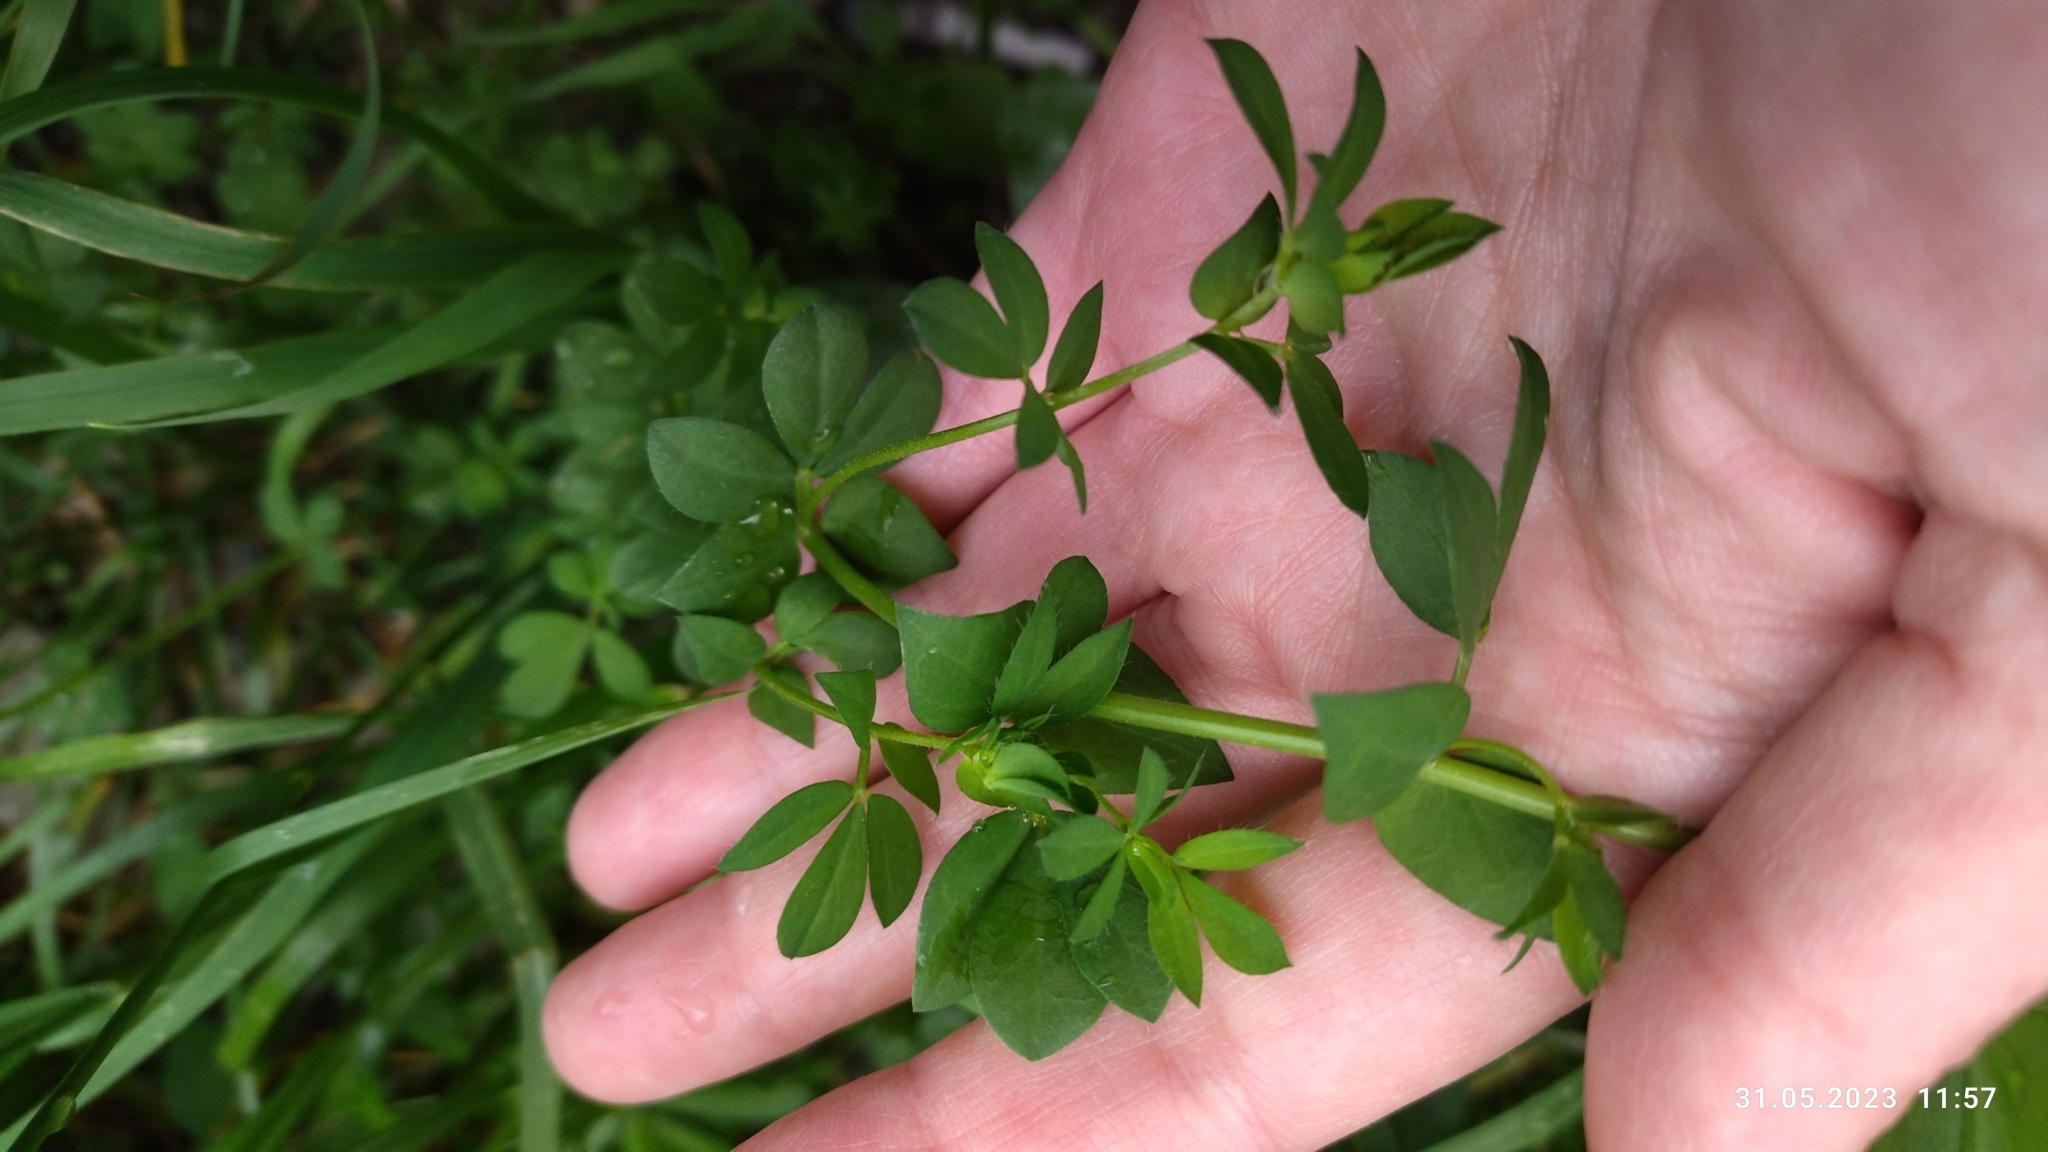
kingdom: Plantae
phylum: Tracheophyta
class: Magnoliopsida
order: Fabales
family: Fabaceae
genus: Lotus
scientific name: Lotus corniculatus
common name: Common bird's-foot-trefoil
